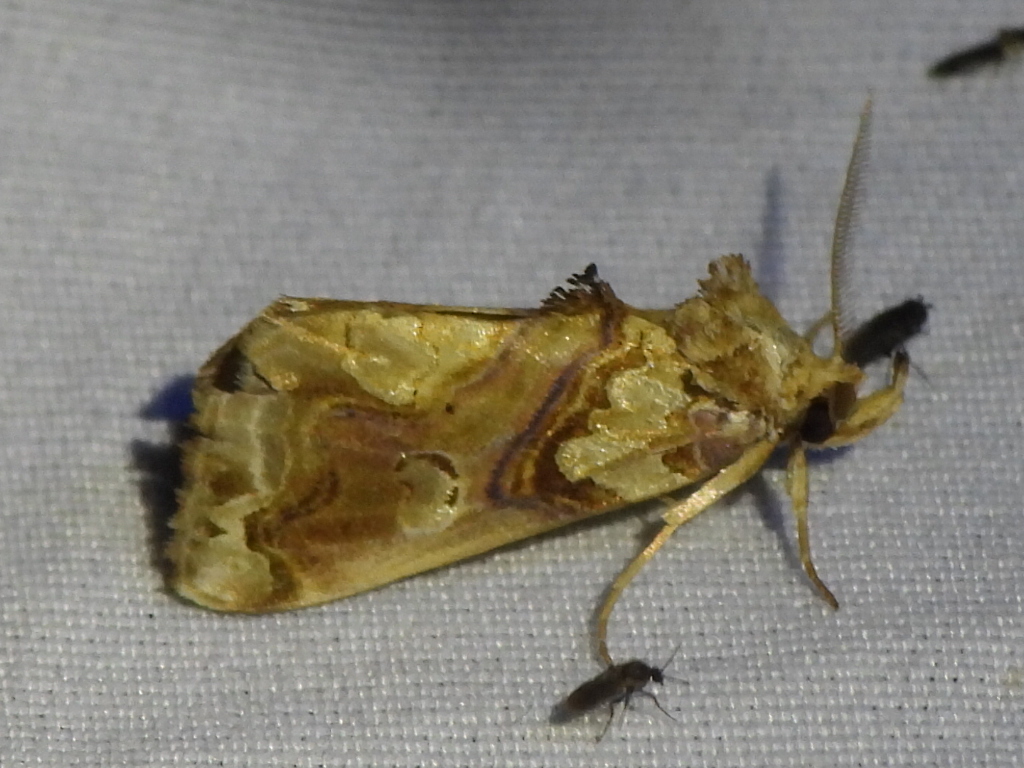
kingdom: Animalia
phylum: Arthropoda
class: Insecta
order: Lepidoptera
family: Erebidae
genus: Plusiodonta
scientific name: Plusiodonta compressipalpis
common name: Moonseed moth
